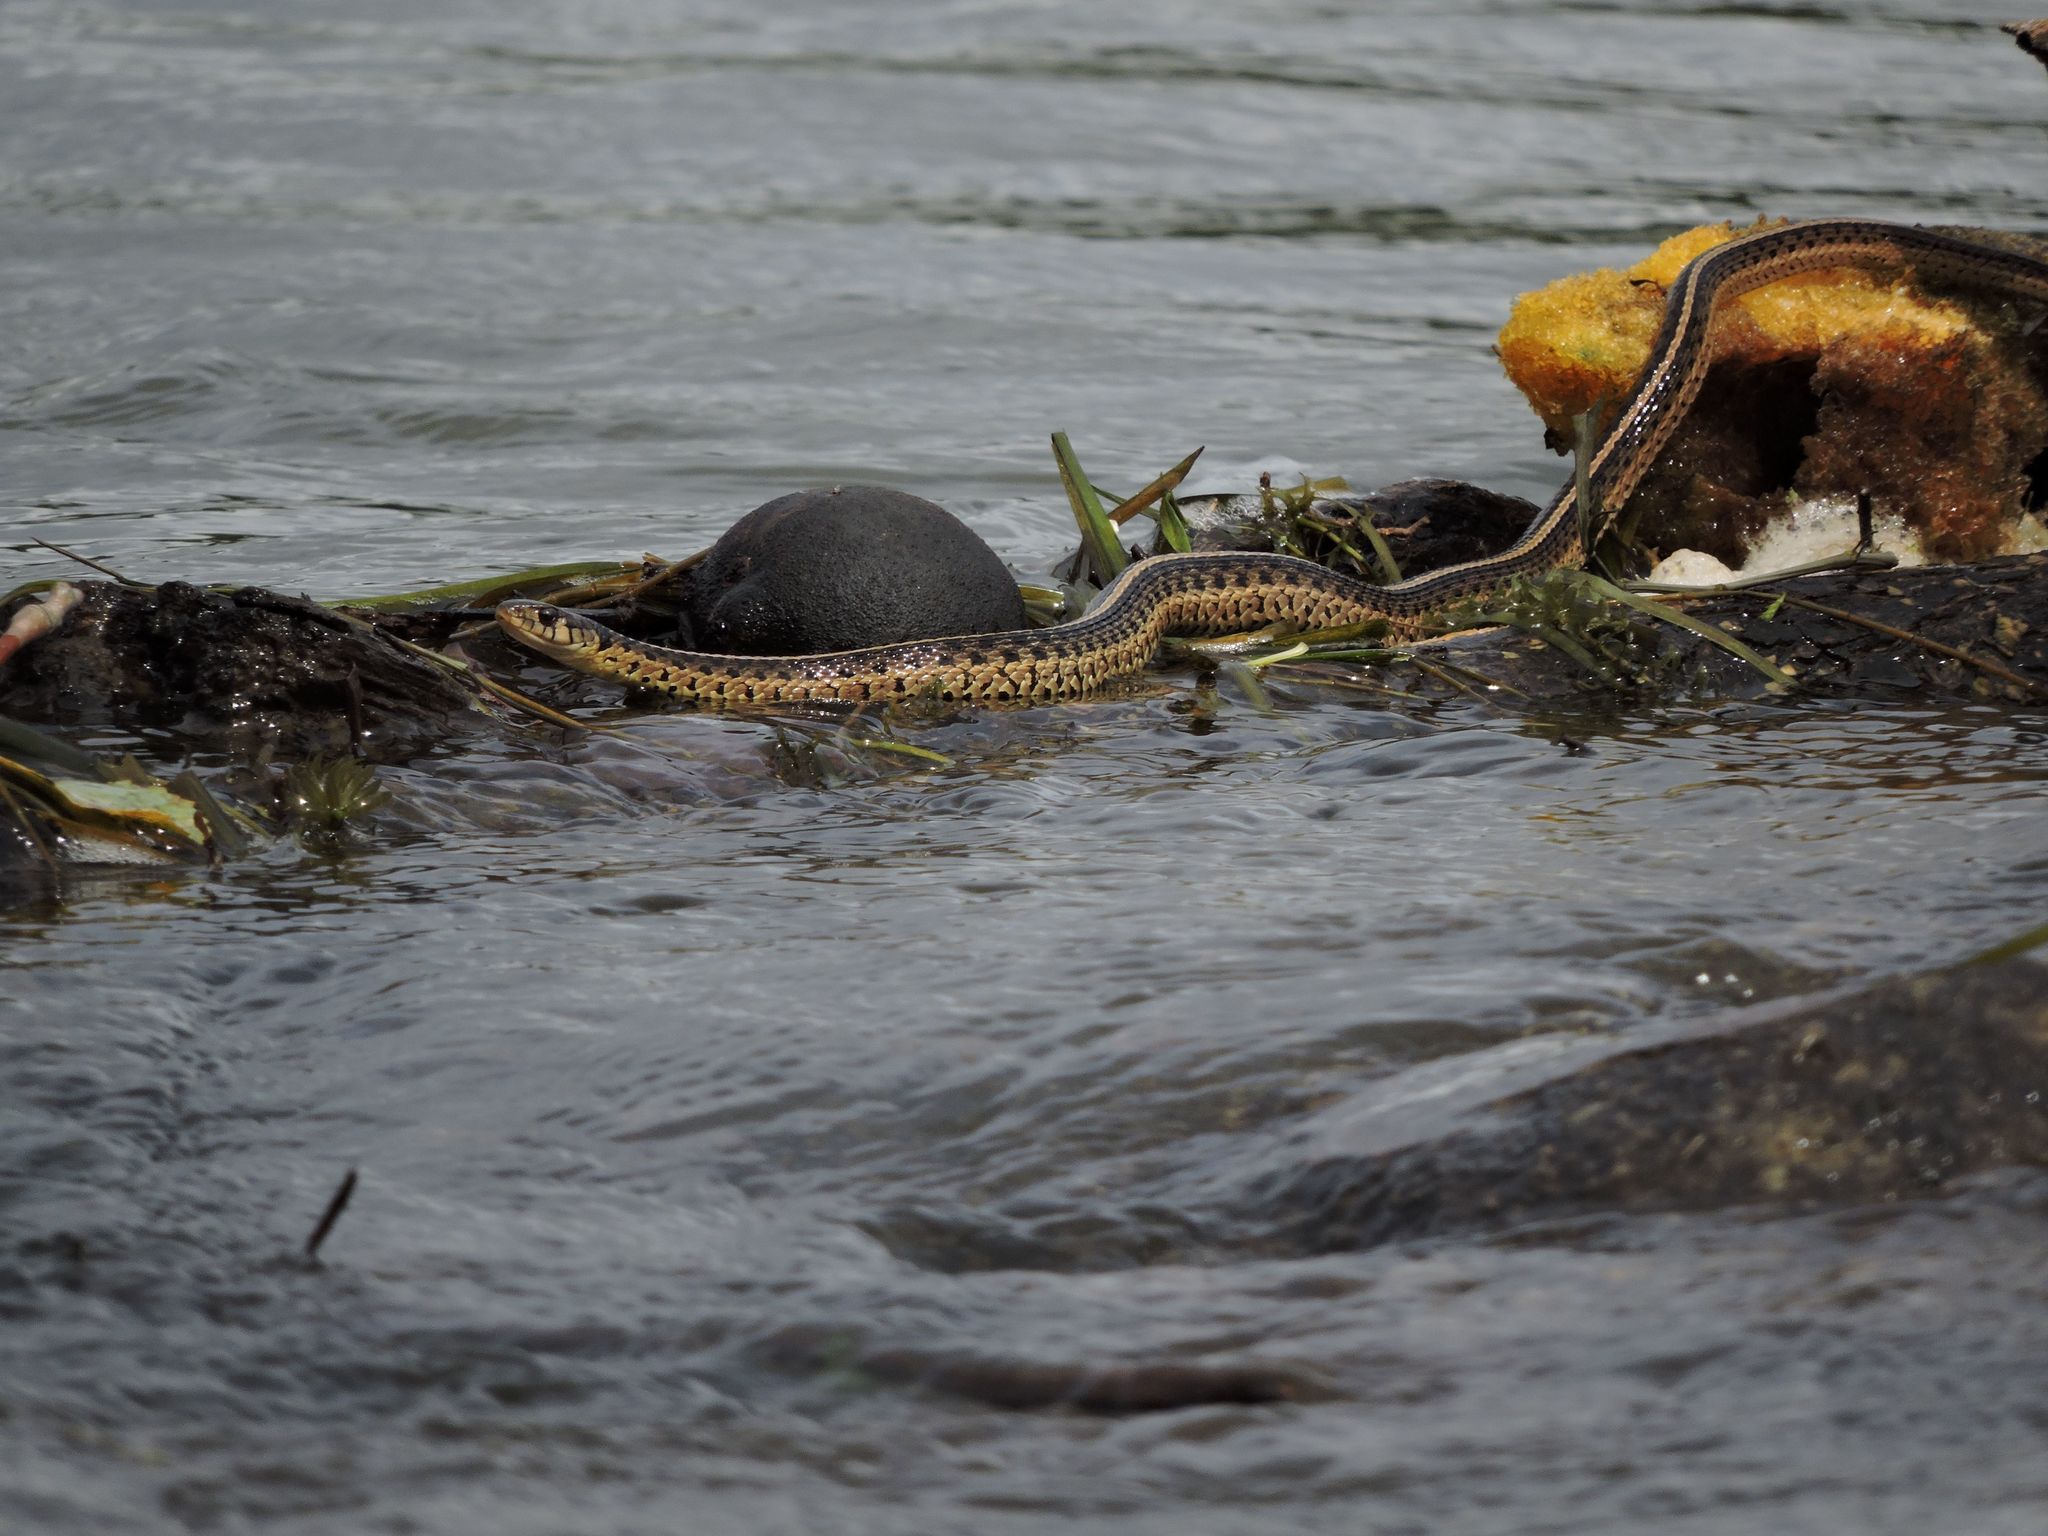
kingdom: Animalia
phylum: Chordata
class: Squamata
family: Colubridae
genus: Thamnophis
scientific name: Thamnophis sirtalis
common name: Common garter snake
